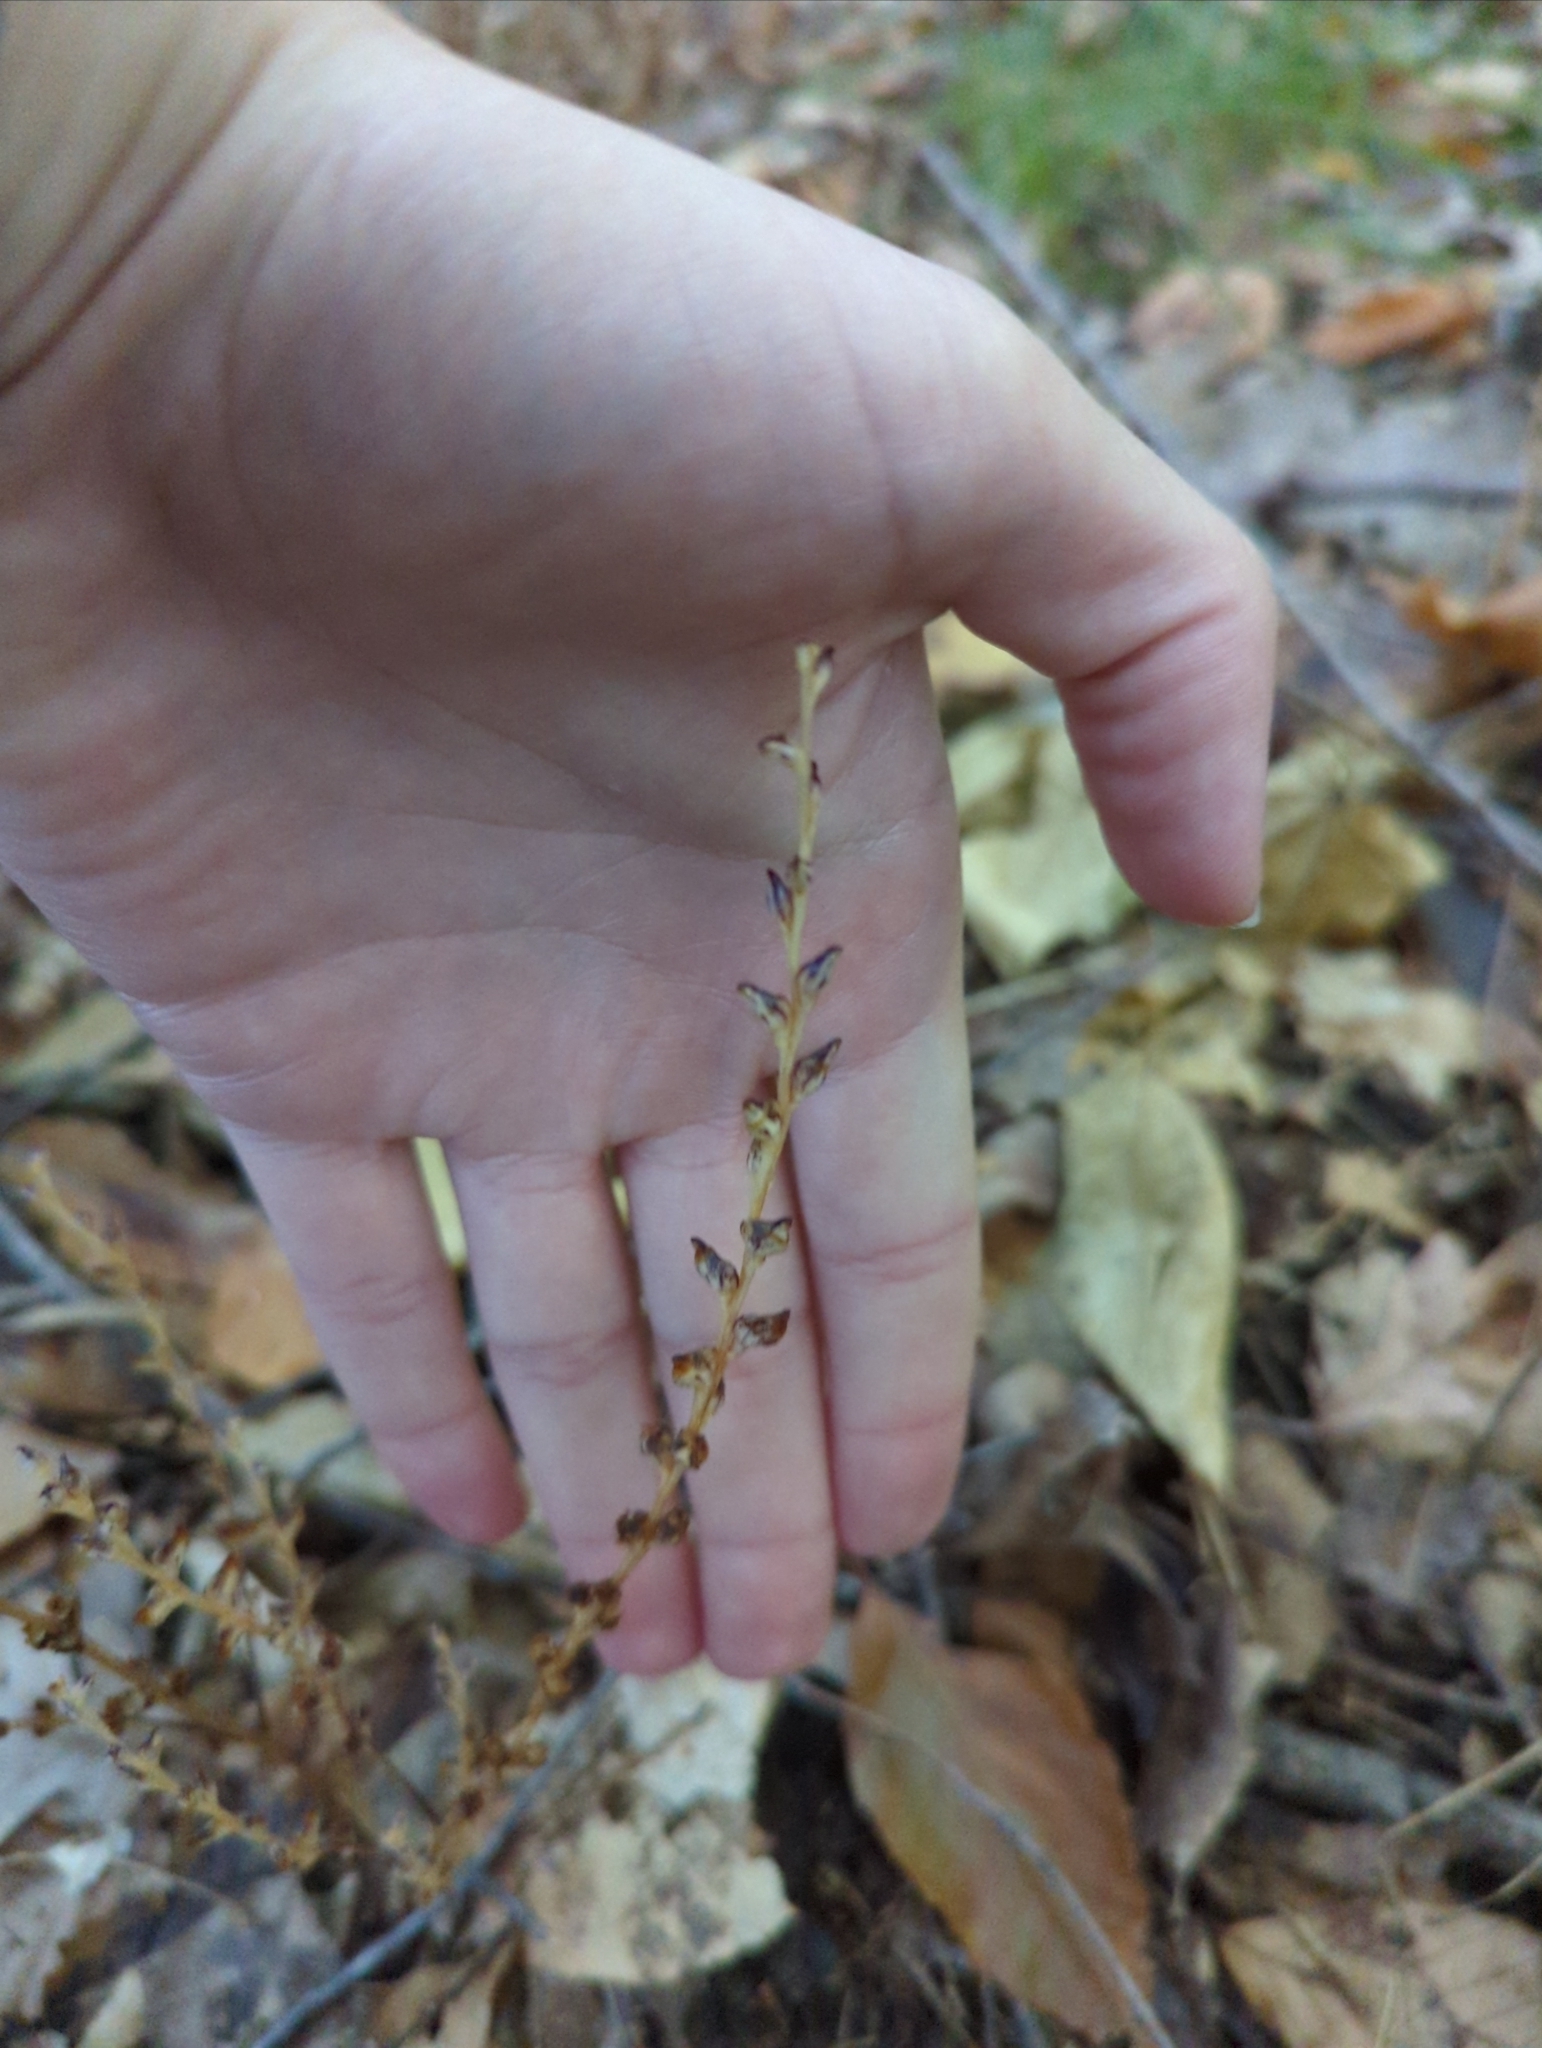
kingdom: Plantae
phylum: Tracheophyta
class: Magnoliopsida
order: Lamiales
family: Orobanchaceae
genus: Epifagus
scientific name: Epifagus virginiana
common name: Beechdrops
